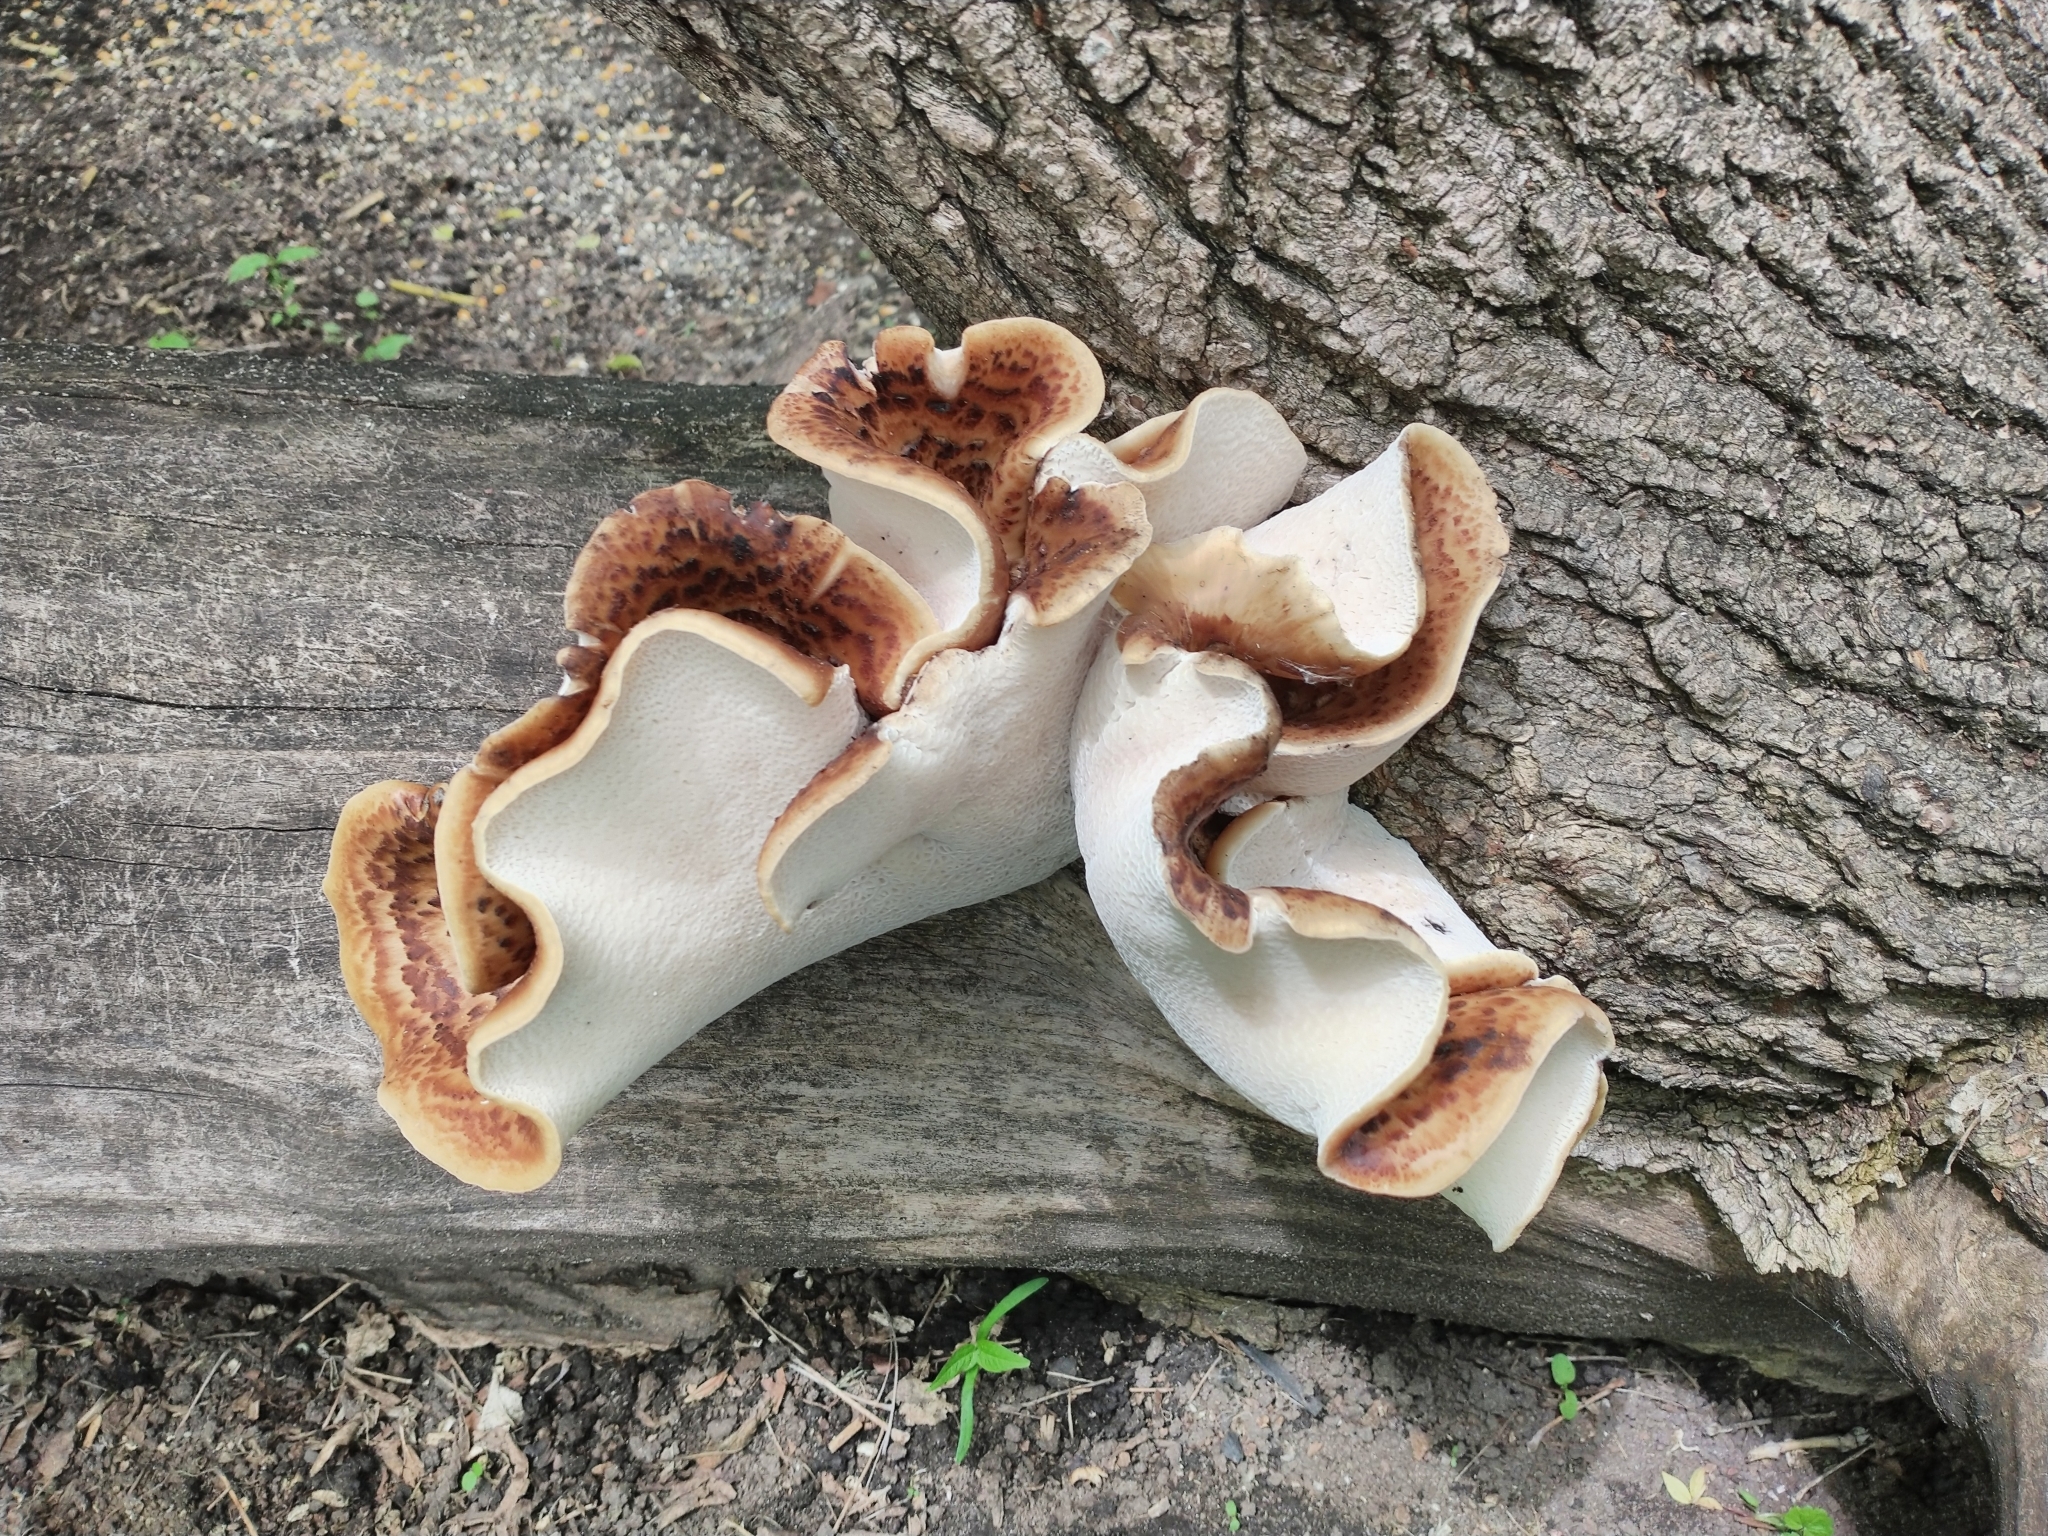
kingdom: Fungi
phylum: Basidiomycota
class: Agaricomycetes
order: Polyporales
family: Polyporaceae
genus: Cerioporus
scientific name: Cerioporus squamosus
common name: Dryad's saddle
